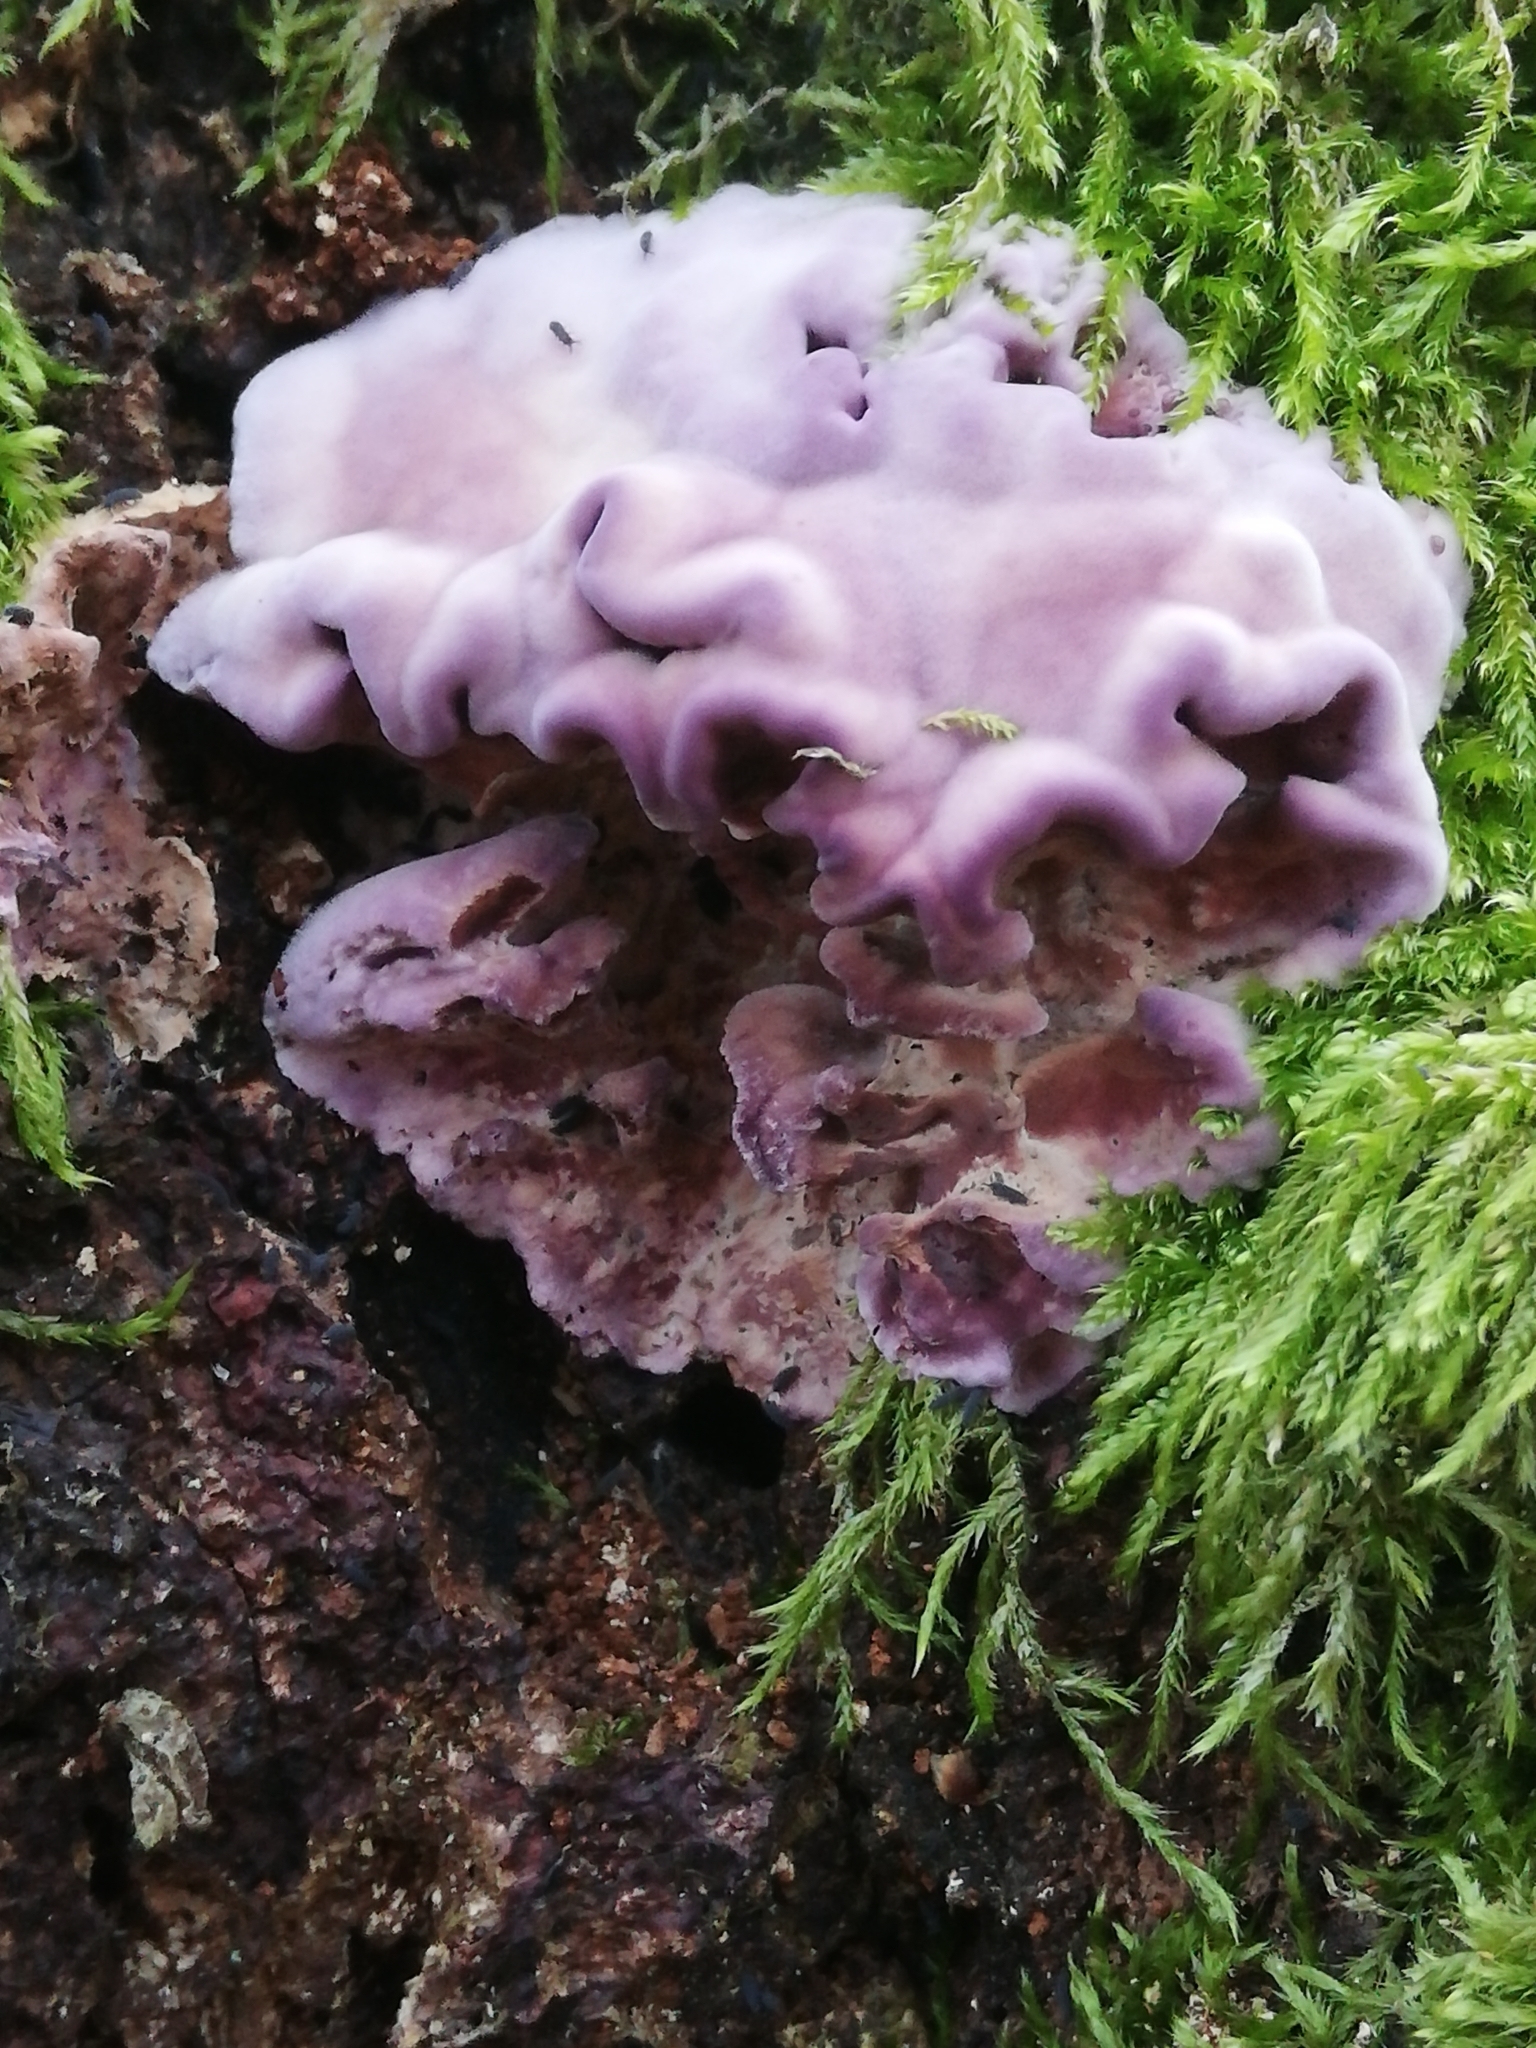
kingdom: Fungi
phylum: Basidiomycota
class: Agaricomycetes
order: Agaricales
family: Cyphellaceae
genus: Chondrostereum
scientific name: Chondrostereum purpureum
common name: Silver leaf disease
